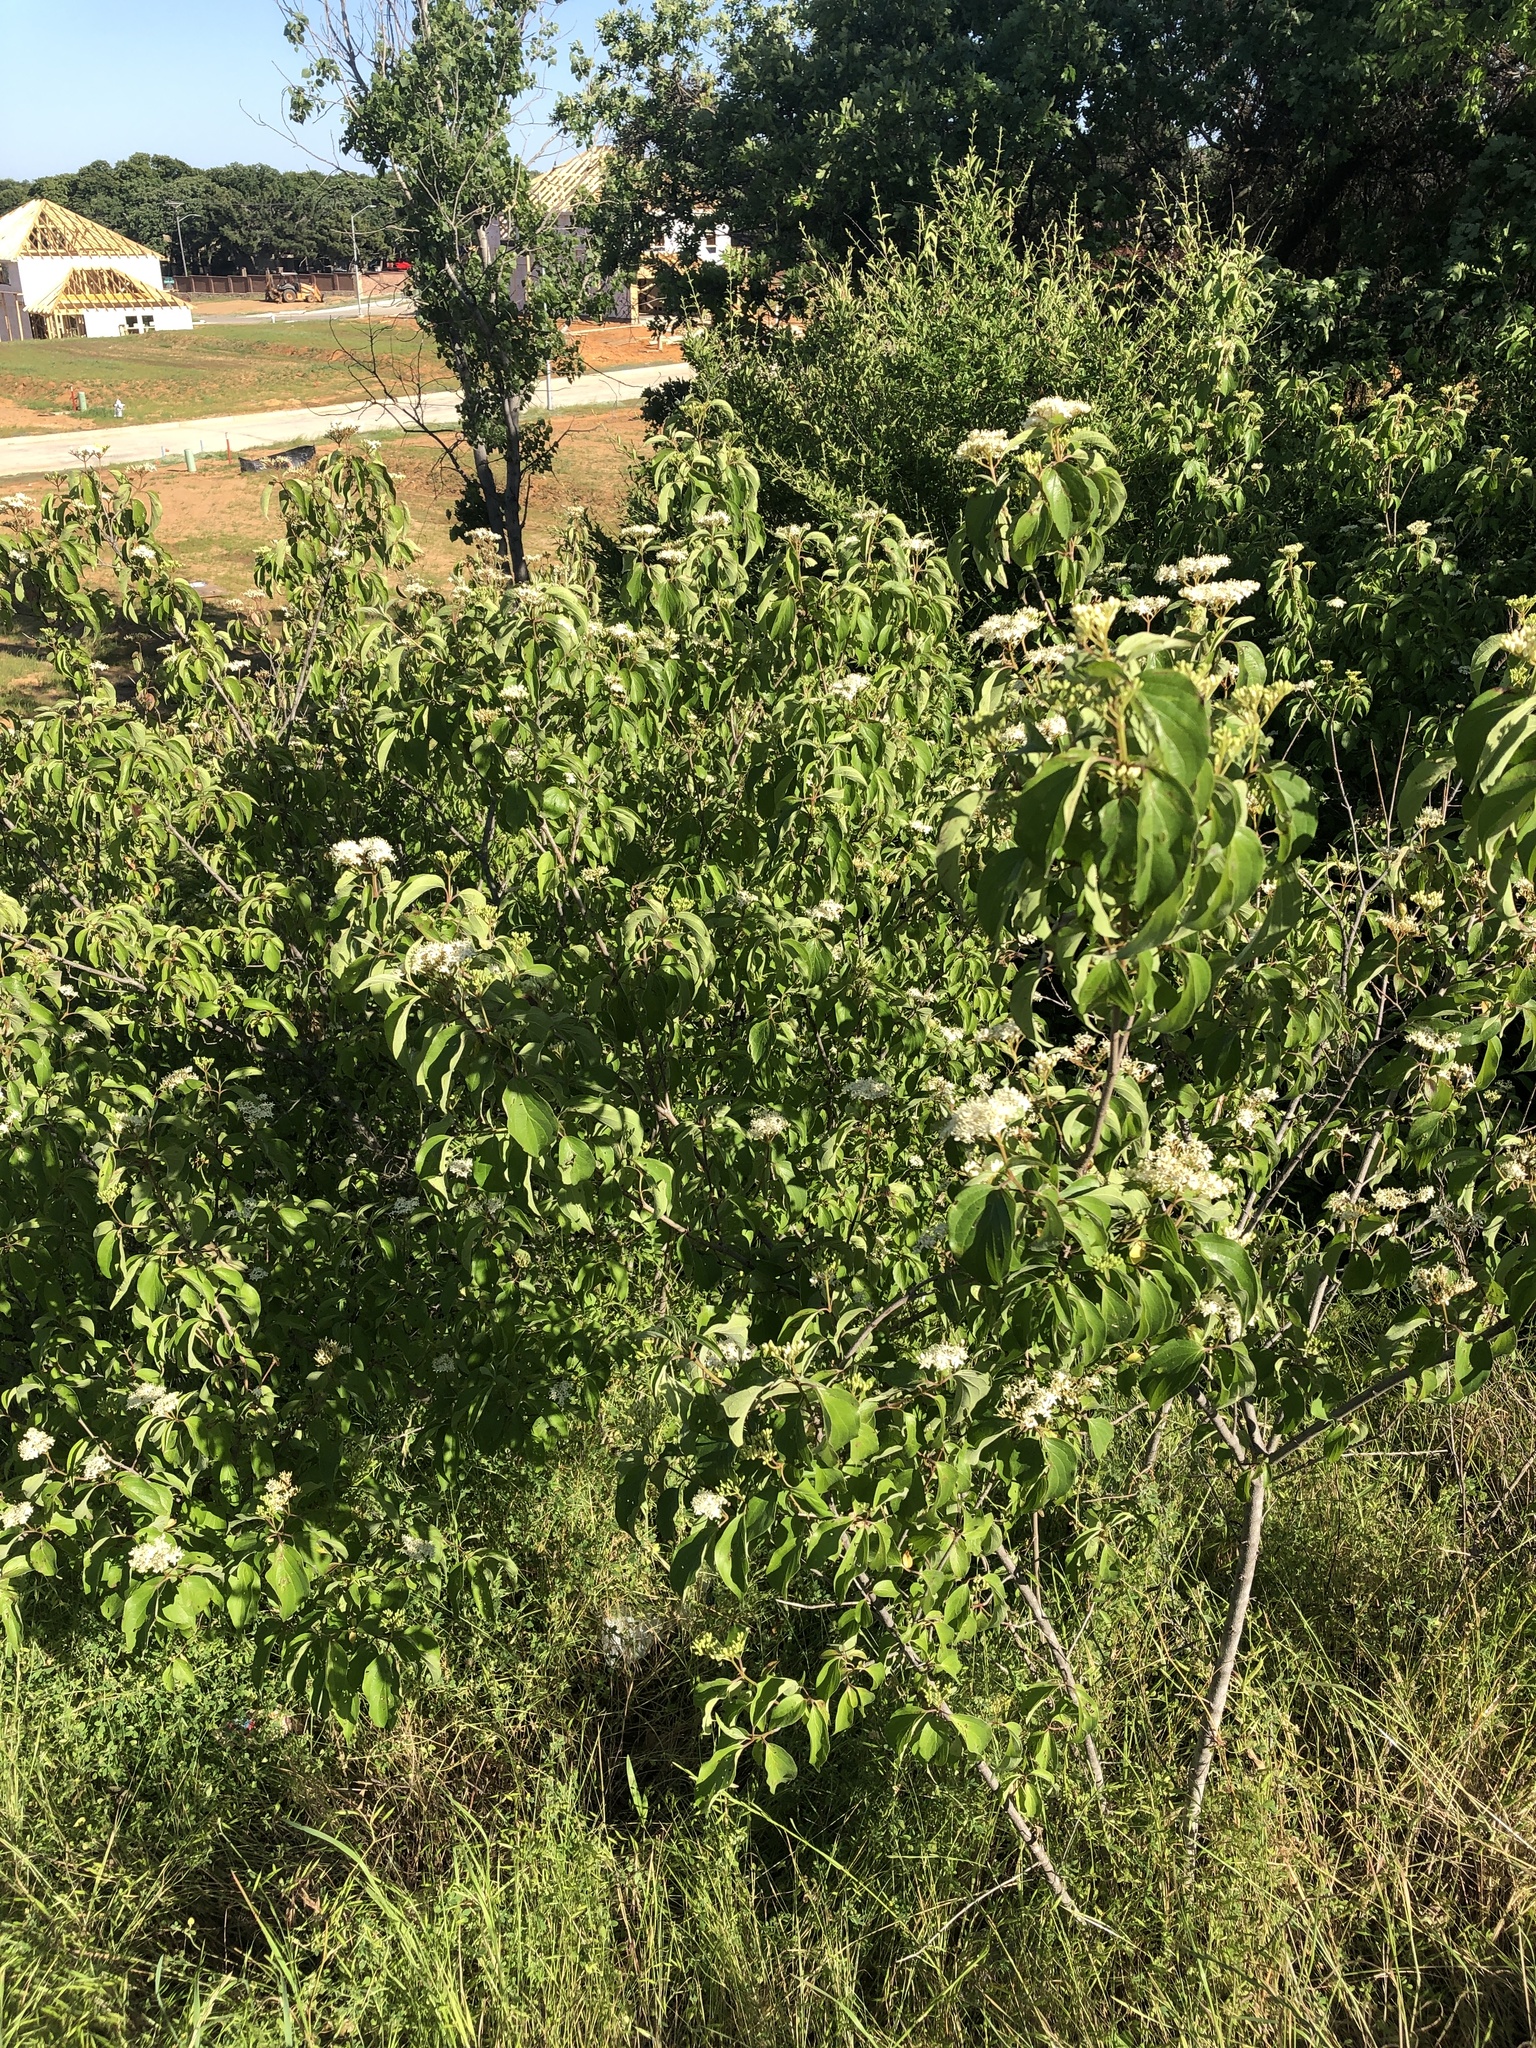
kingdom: Plantae
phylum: Tracheophyta
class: Magnoliopsida
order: Cornales
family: Cornaceae
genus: Cornus
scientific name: Cornus drummondii
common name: Rough-leaf dogwood
